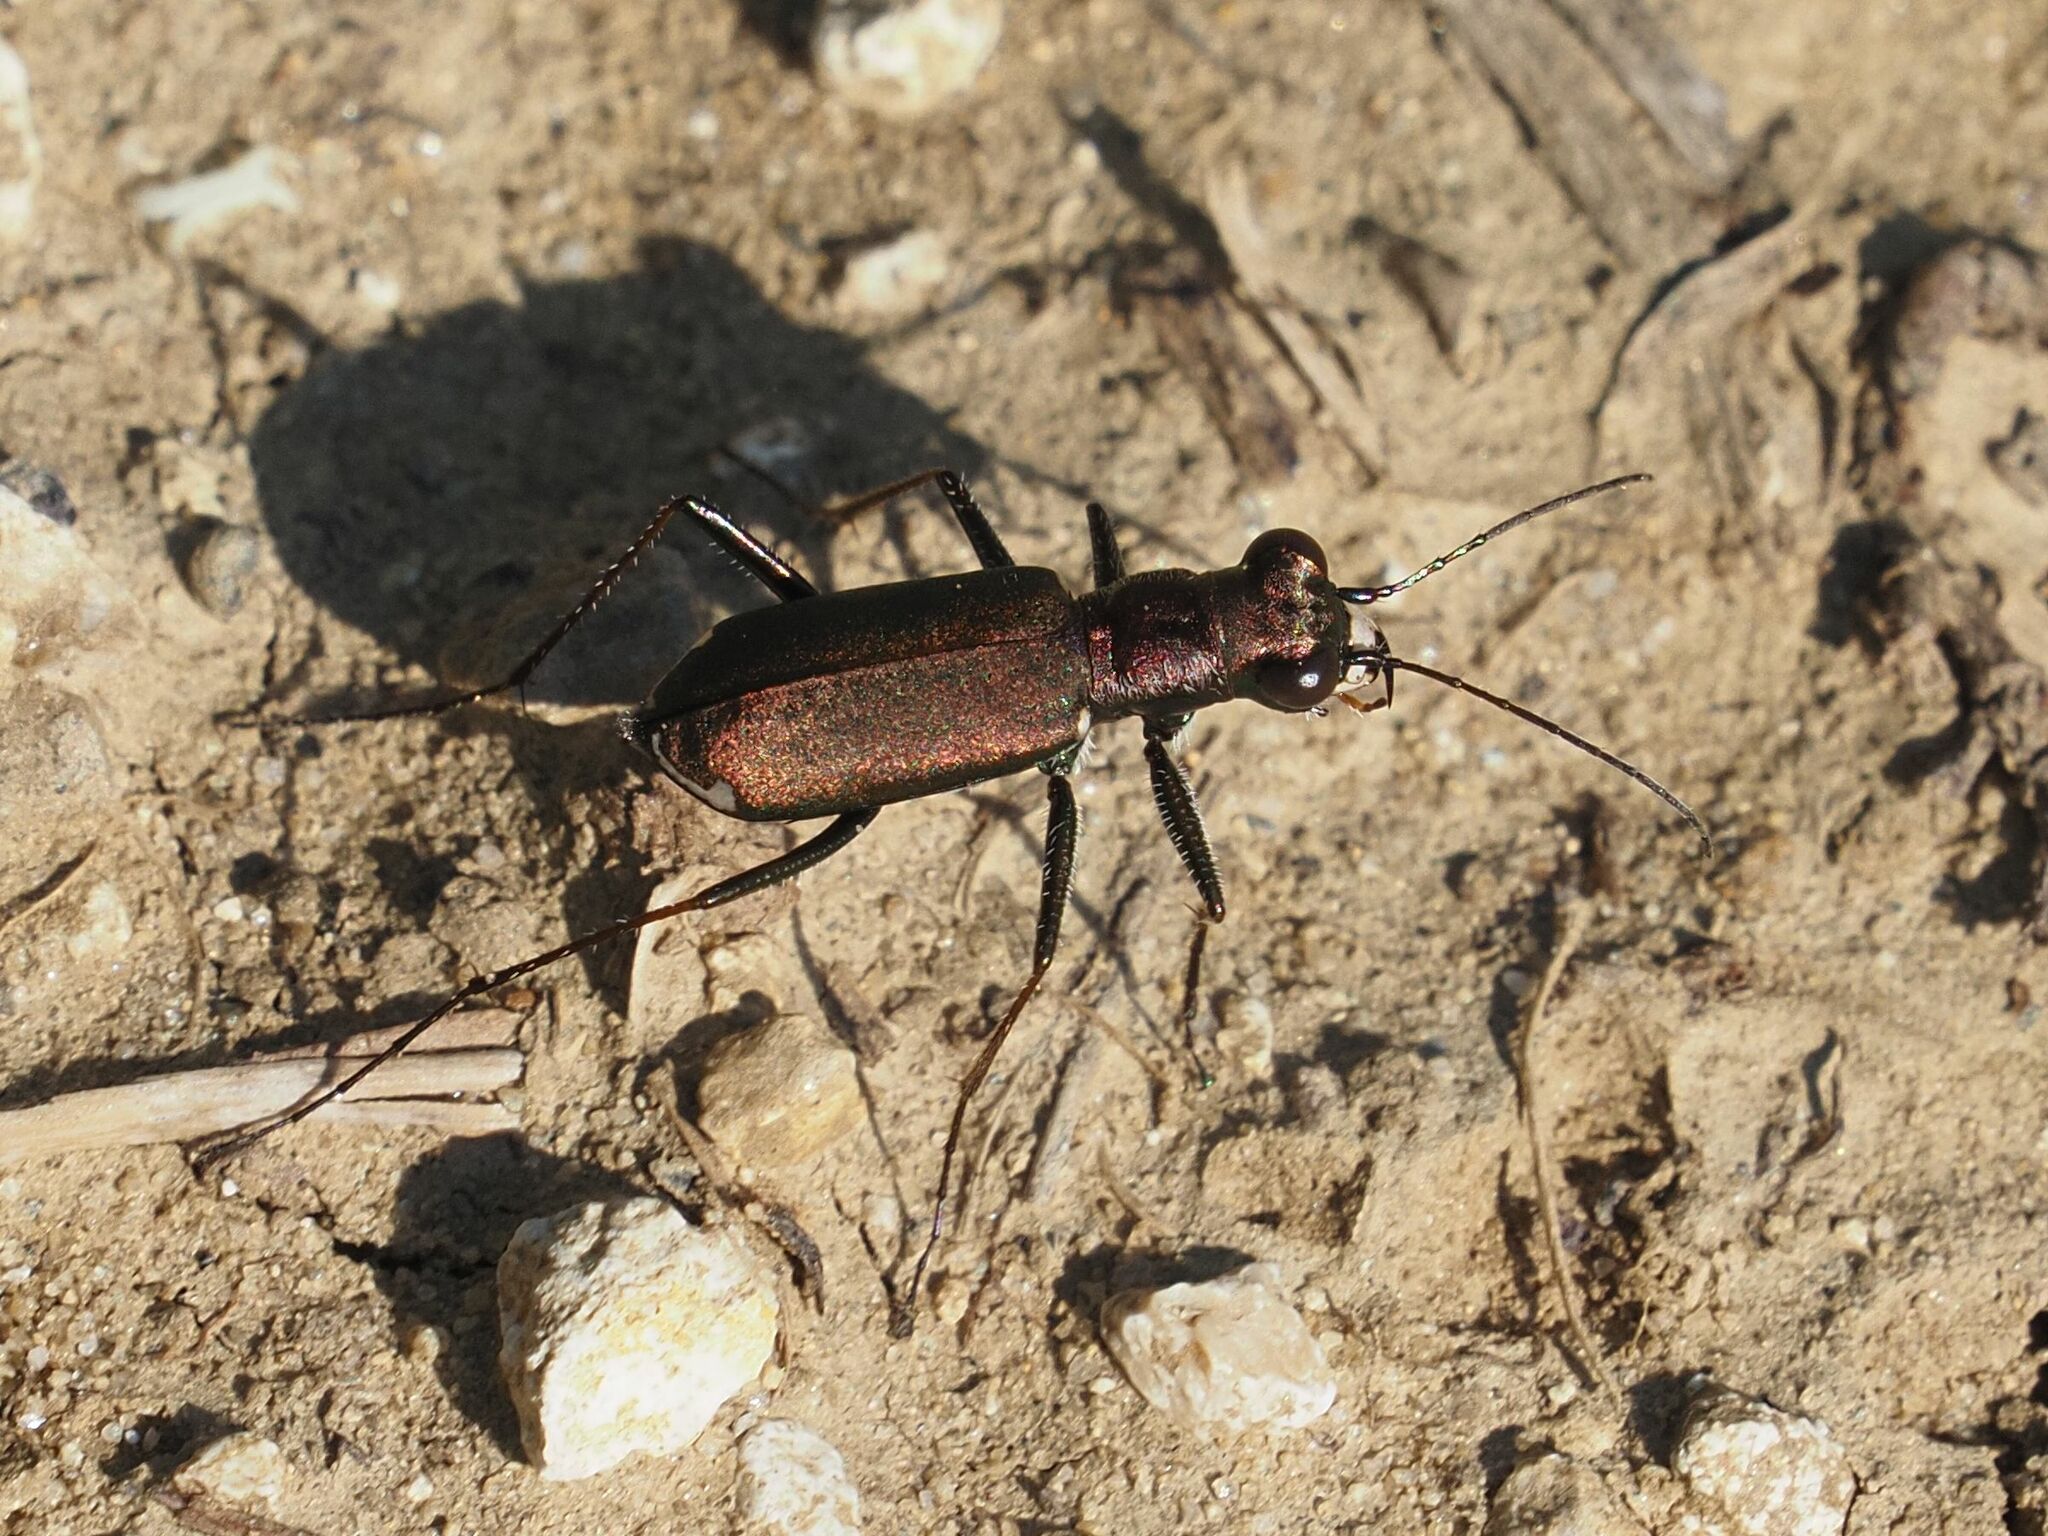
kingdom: Animalia
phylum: Arthropoda
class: Insecta
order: Coleoptera
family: Carabidae
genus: Cylindera
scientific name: Cylindera germanica
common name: Cliff tiger beetle
